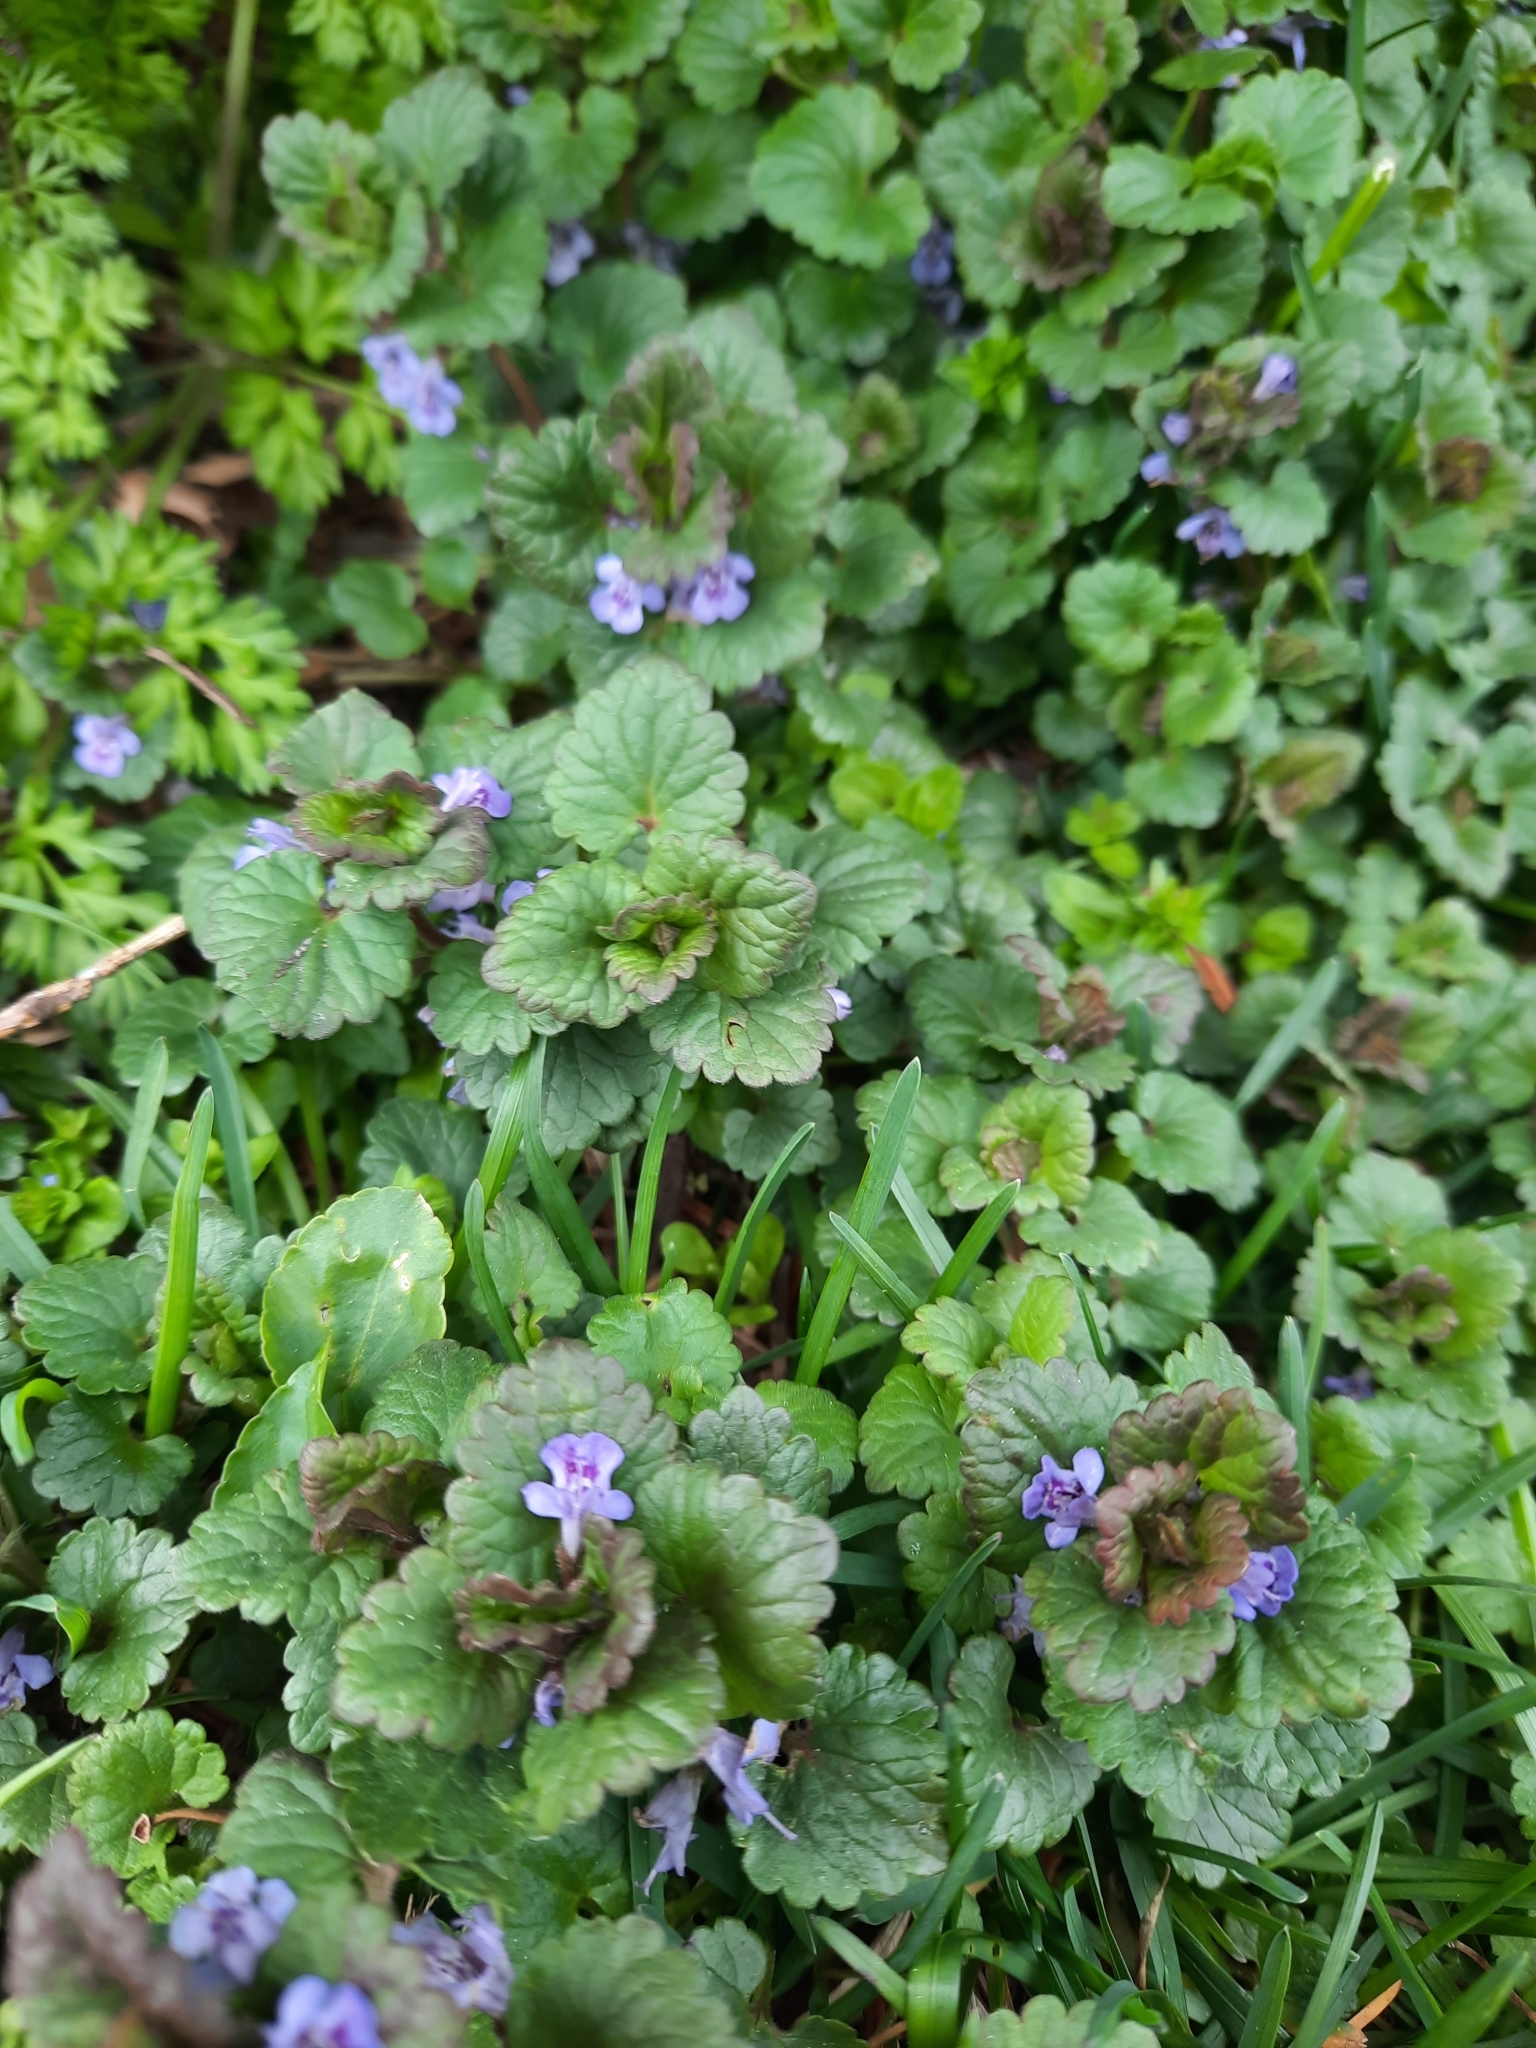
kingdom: Plantae
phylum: Tracheophyta
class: Magnoliopsida
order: Lamiales
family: Lamiaceae
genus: Glechoma
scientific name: Glechoma hederacea
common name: Ground ivy
